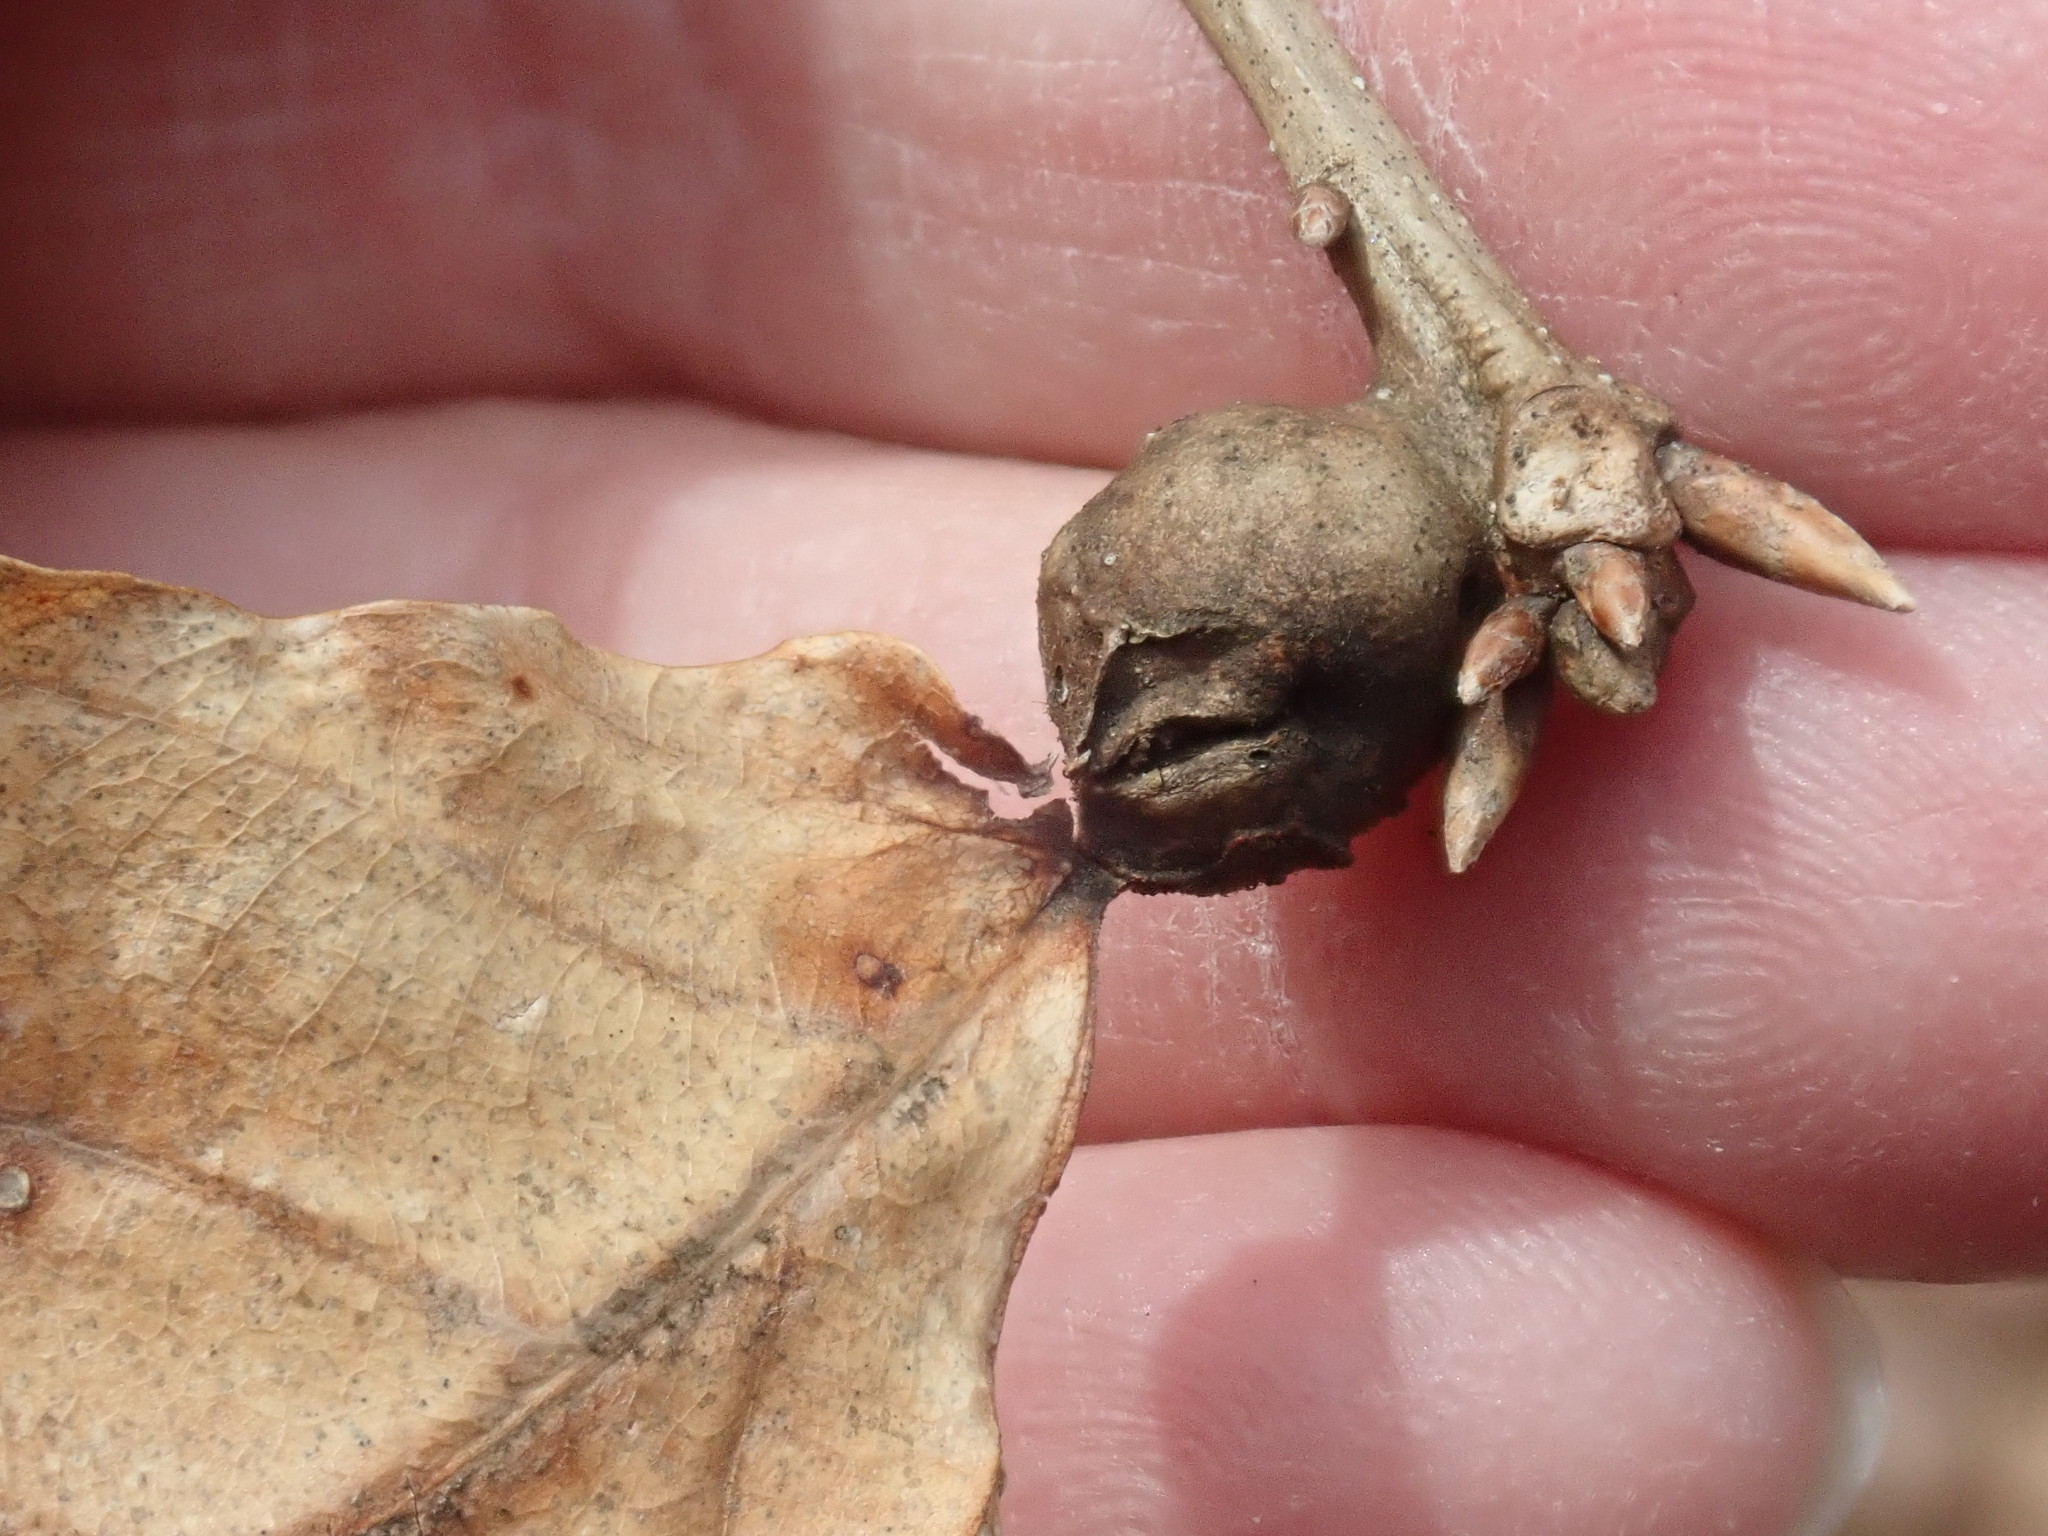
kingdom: Animalia
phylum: Arthropoda
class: Insecta
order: Hymenoptera
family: Cynipidae
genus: Andricus
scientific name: Andricus
